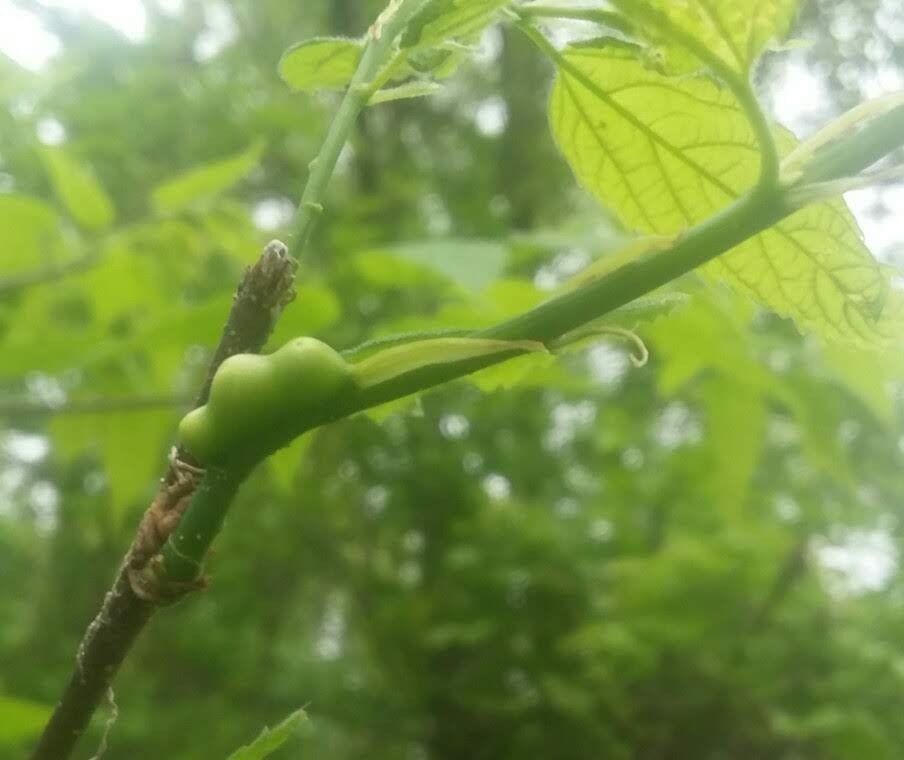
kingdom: Animalia
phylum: Arthropoda
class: Insecta
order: Diptera
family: Cecidomyiidae
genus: Celticecis
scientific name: Celticecis expulsa
